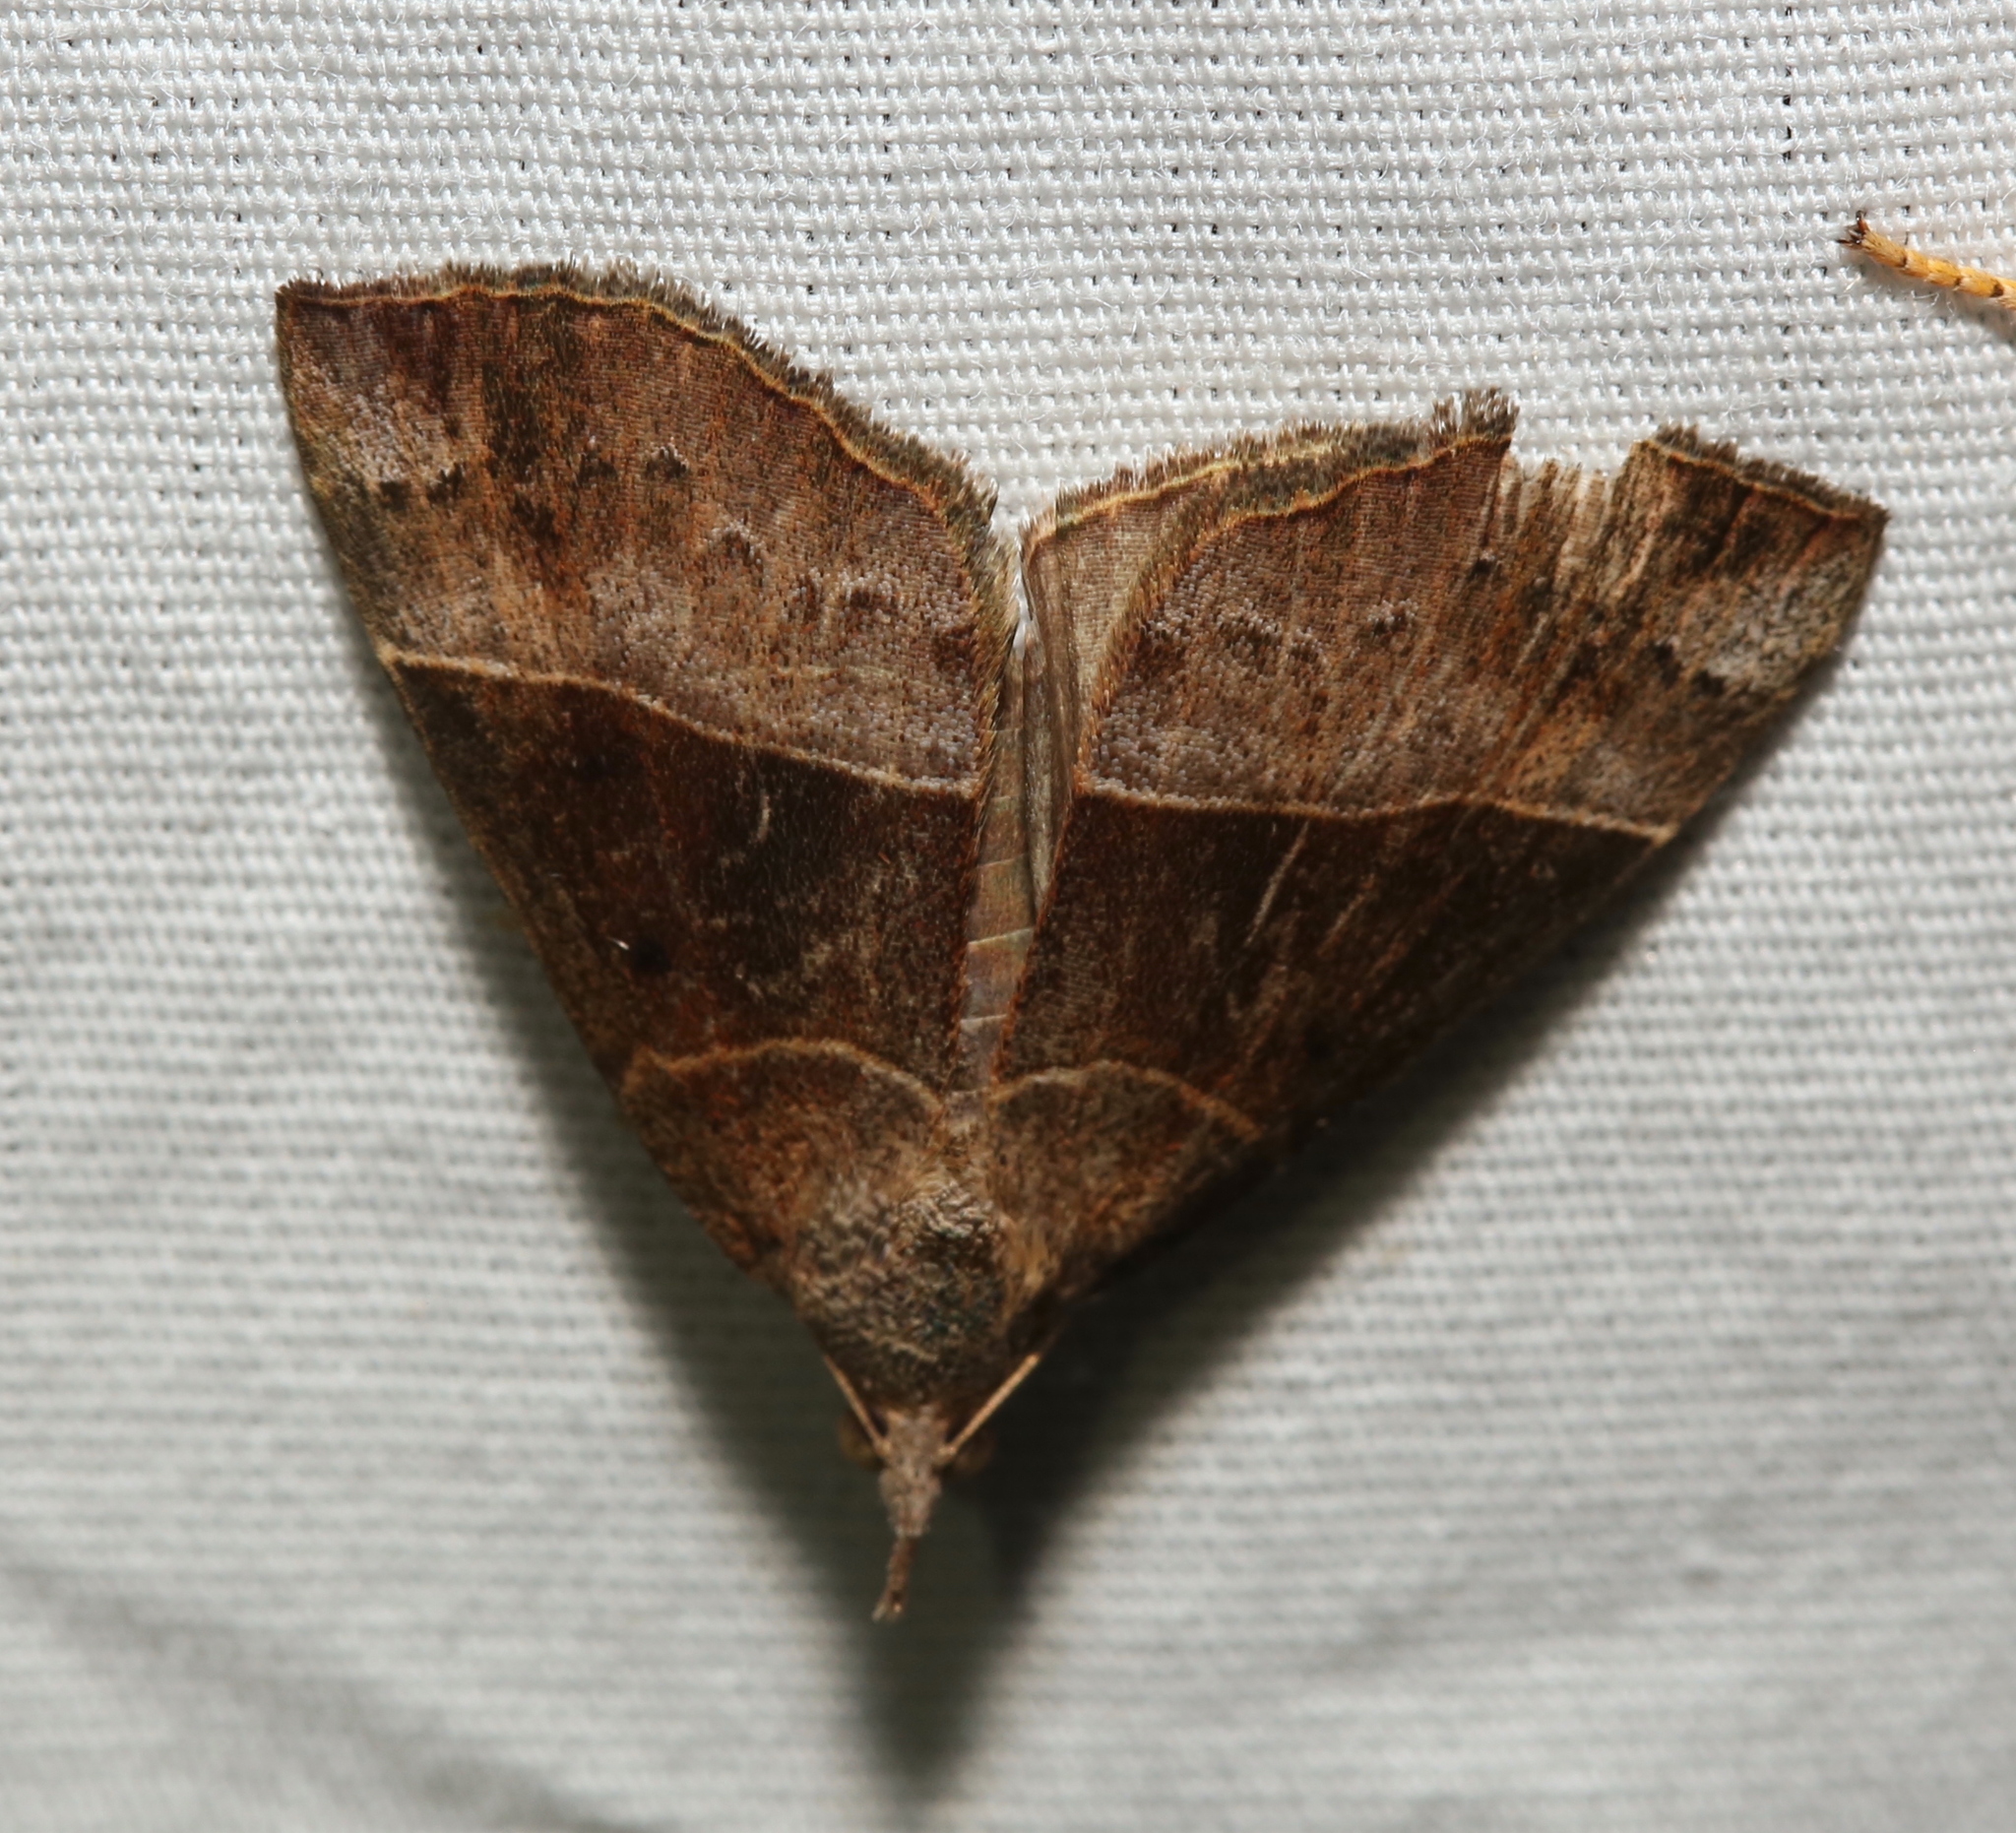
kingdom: Animalia
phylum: Arthropoda
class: Insecta
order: Lepidoptera
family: Erebidae
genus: Hypena
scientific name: Hypena deceptalis
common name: Deceptive snout
